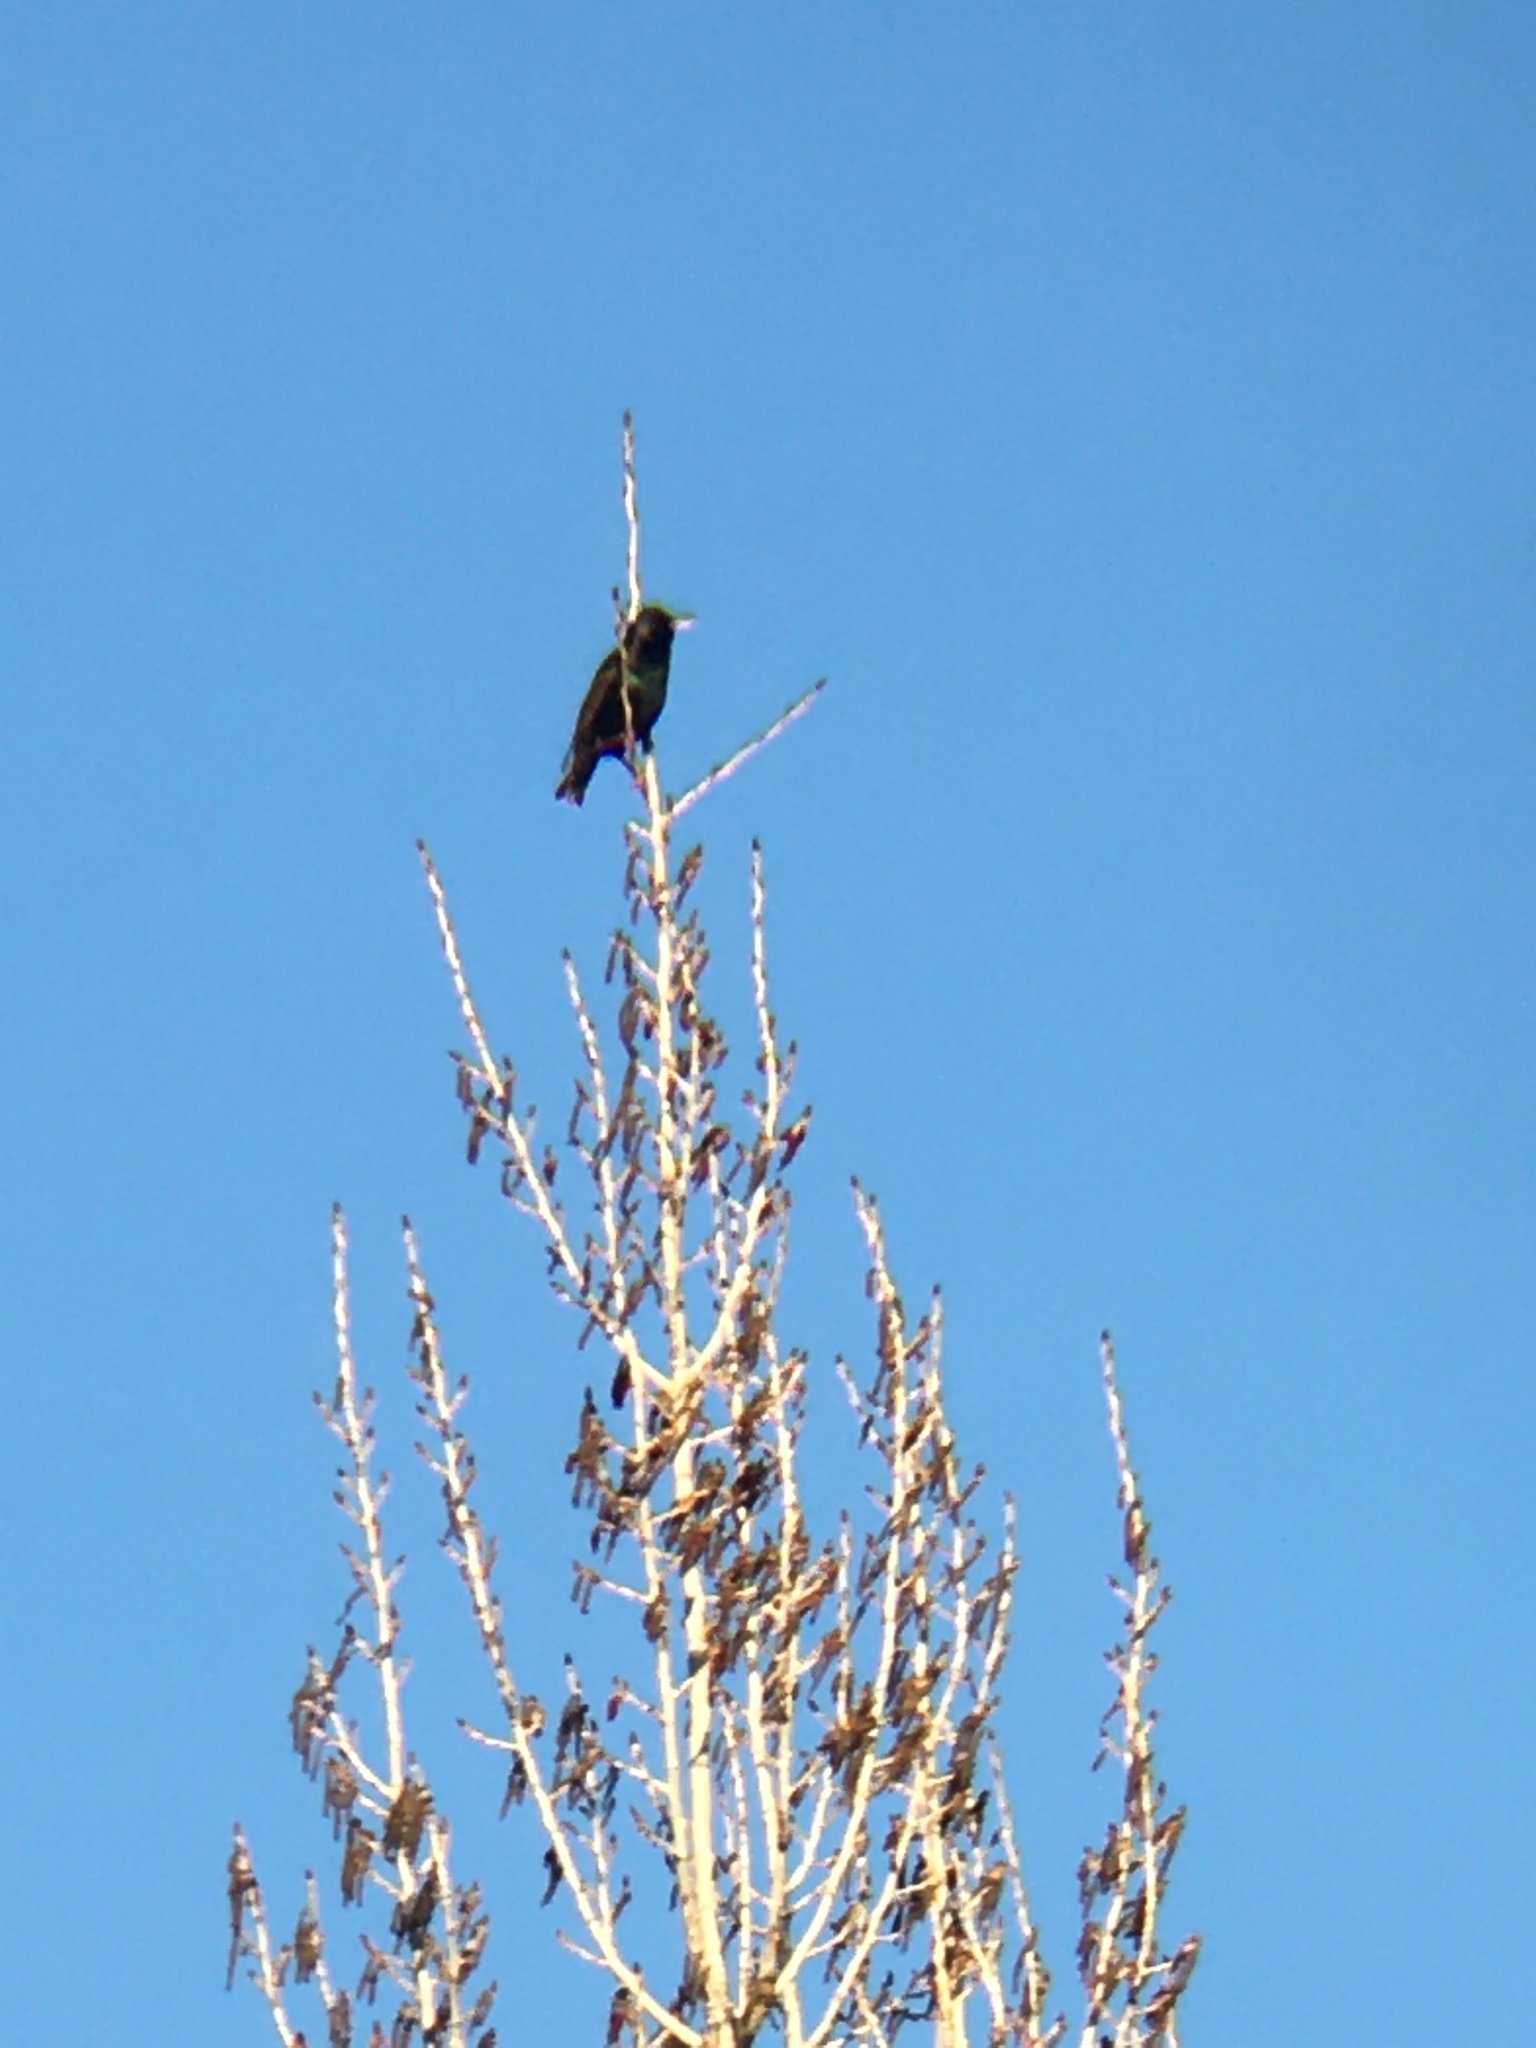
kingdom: Animalia
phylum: Chordata
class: Aves
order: Passeriformes
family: Sturnidae
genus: Sturnus
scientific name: Sturnus vulgaris
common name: Common starling
